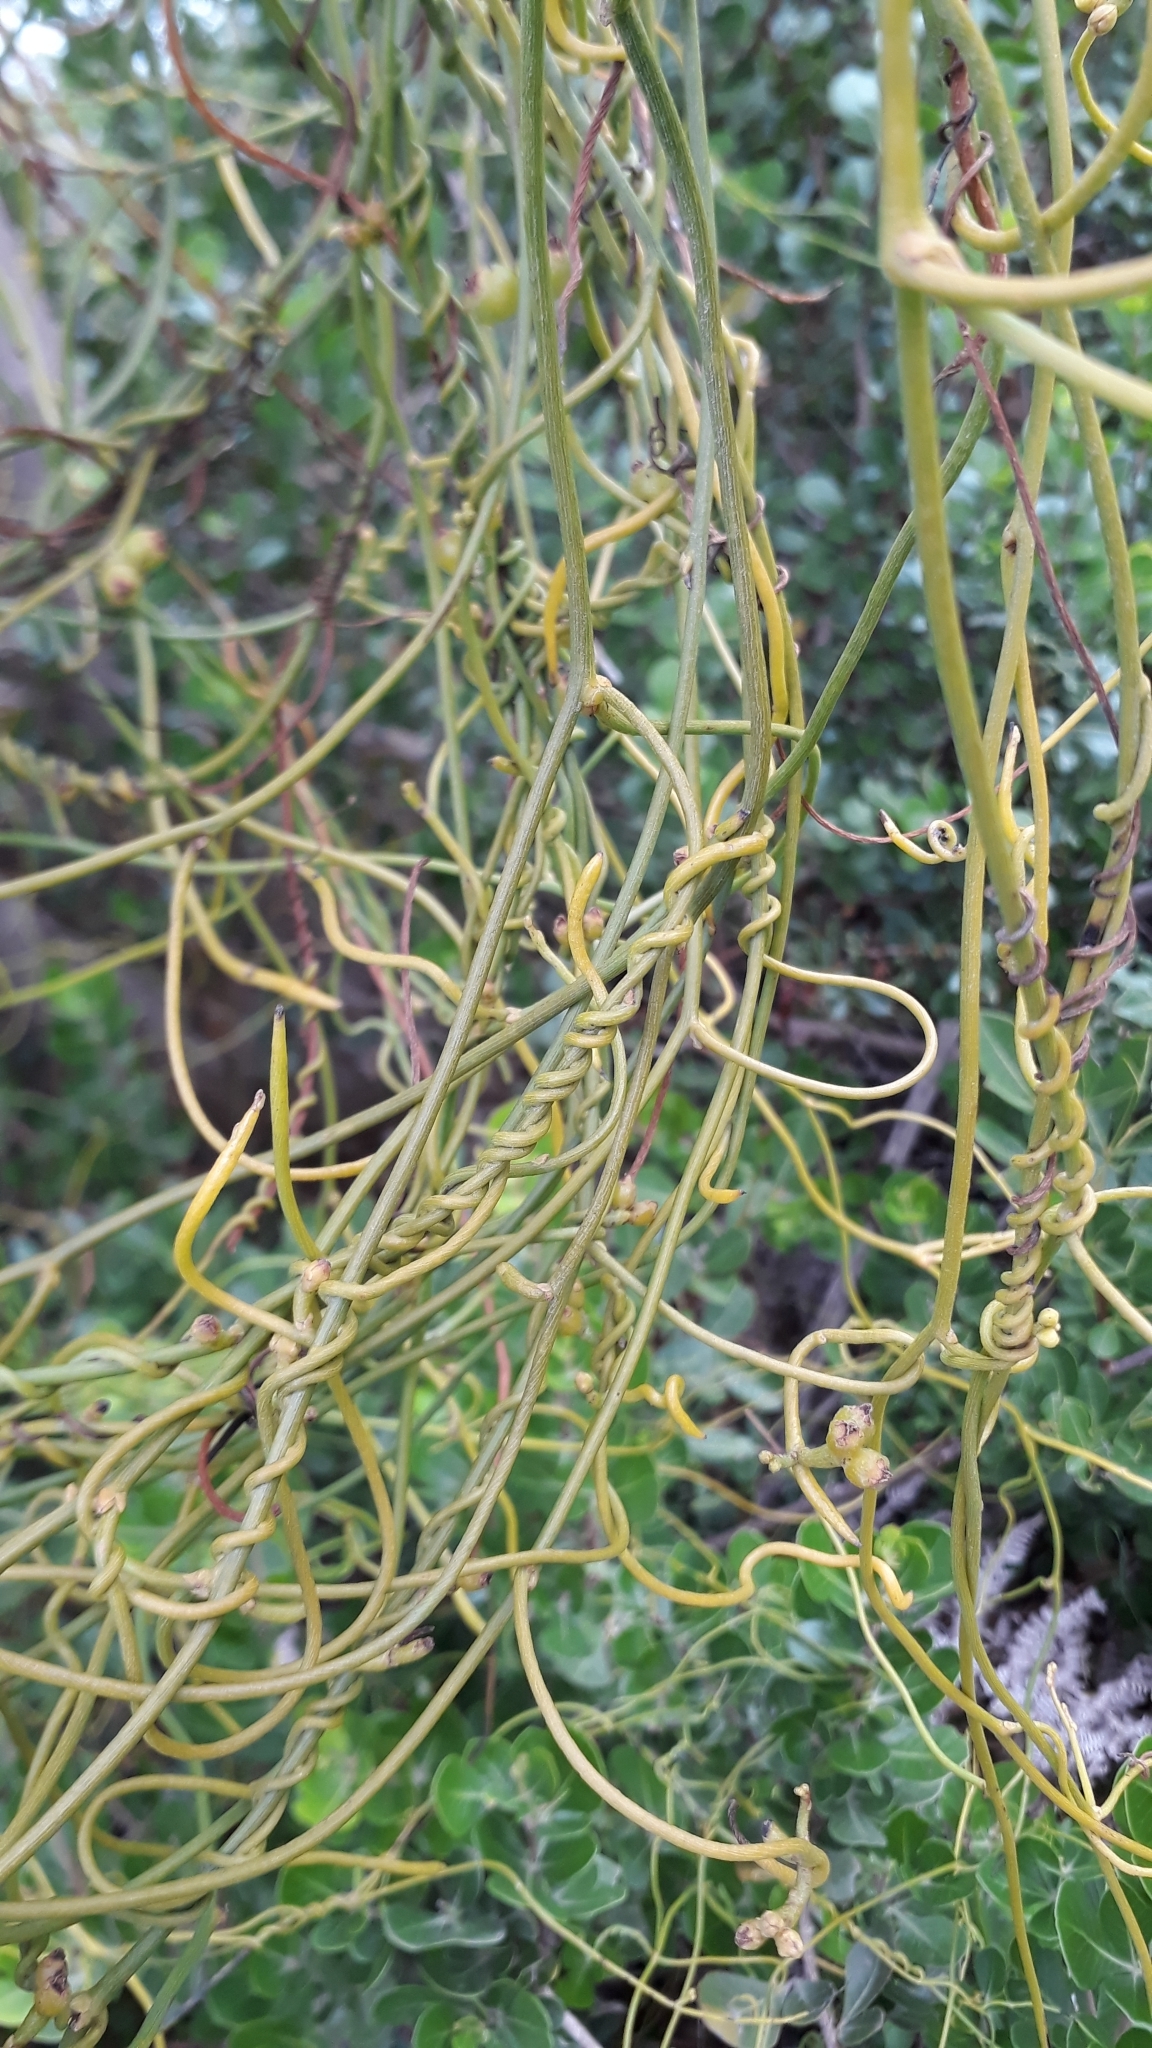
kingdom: Plantae
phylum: Tracheophyta
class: Magnoliopsida
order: Laurales
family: Lauraceae
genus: Cassytha
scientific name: Cassytha ciliolata
